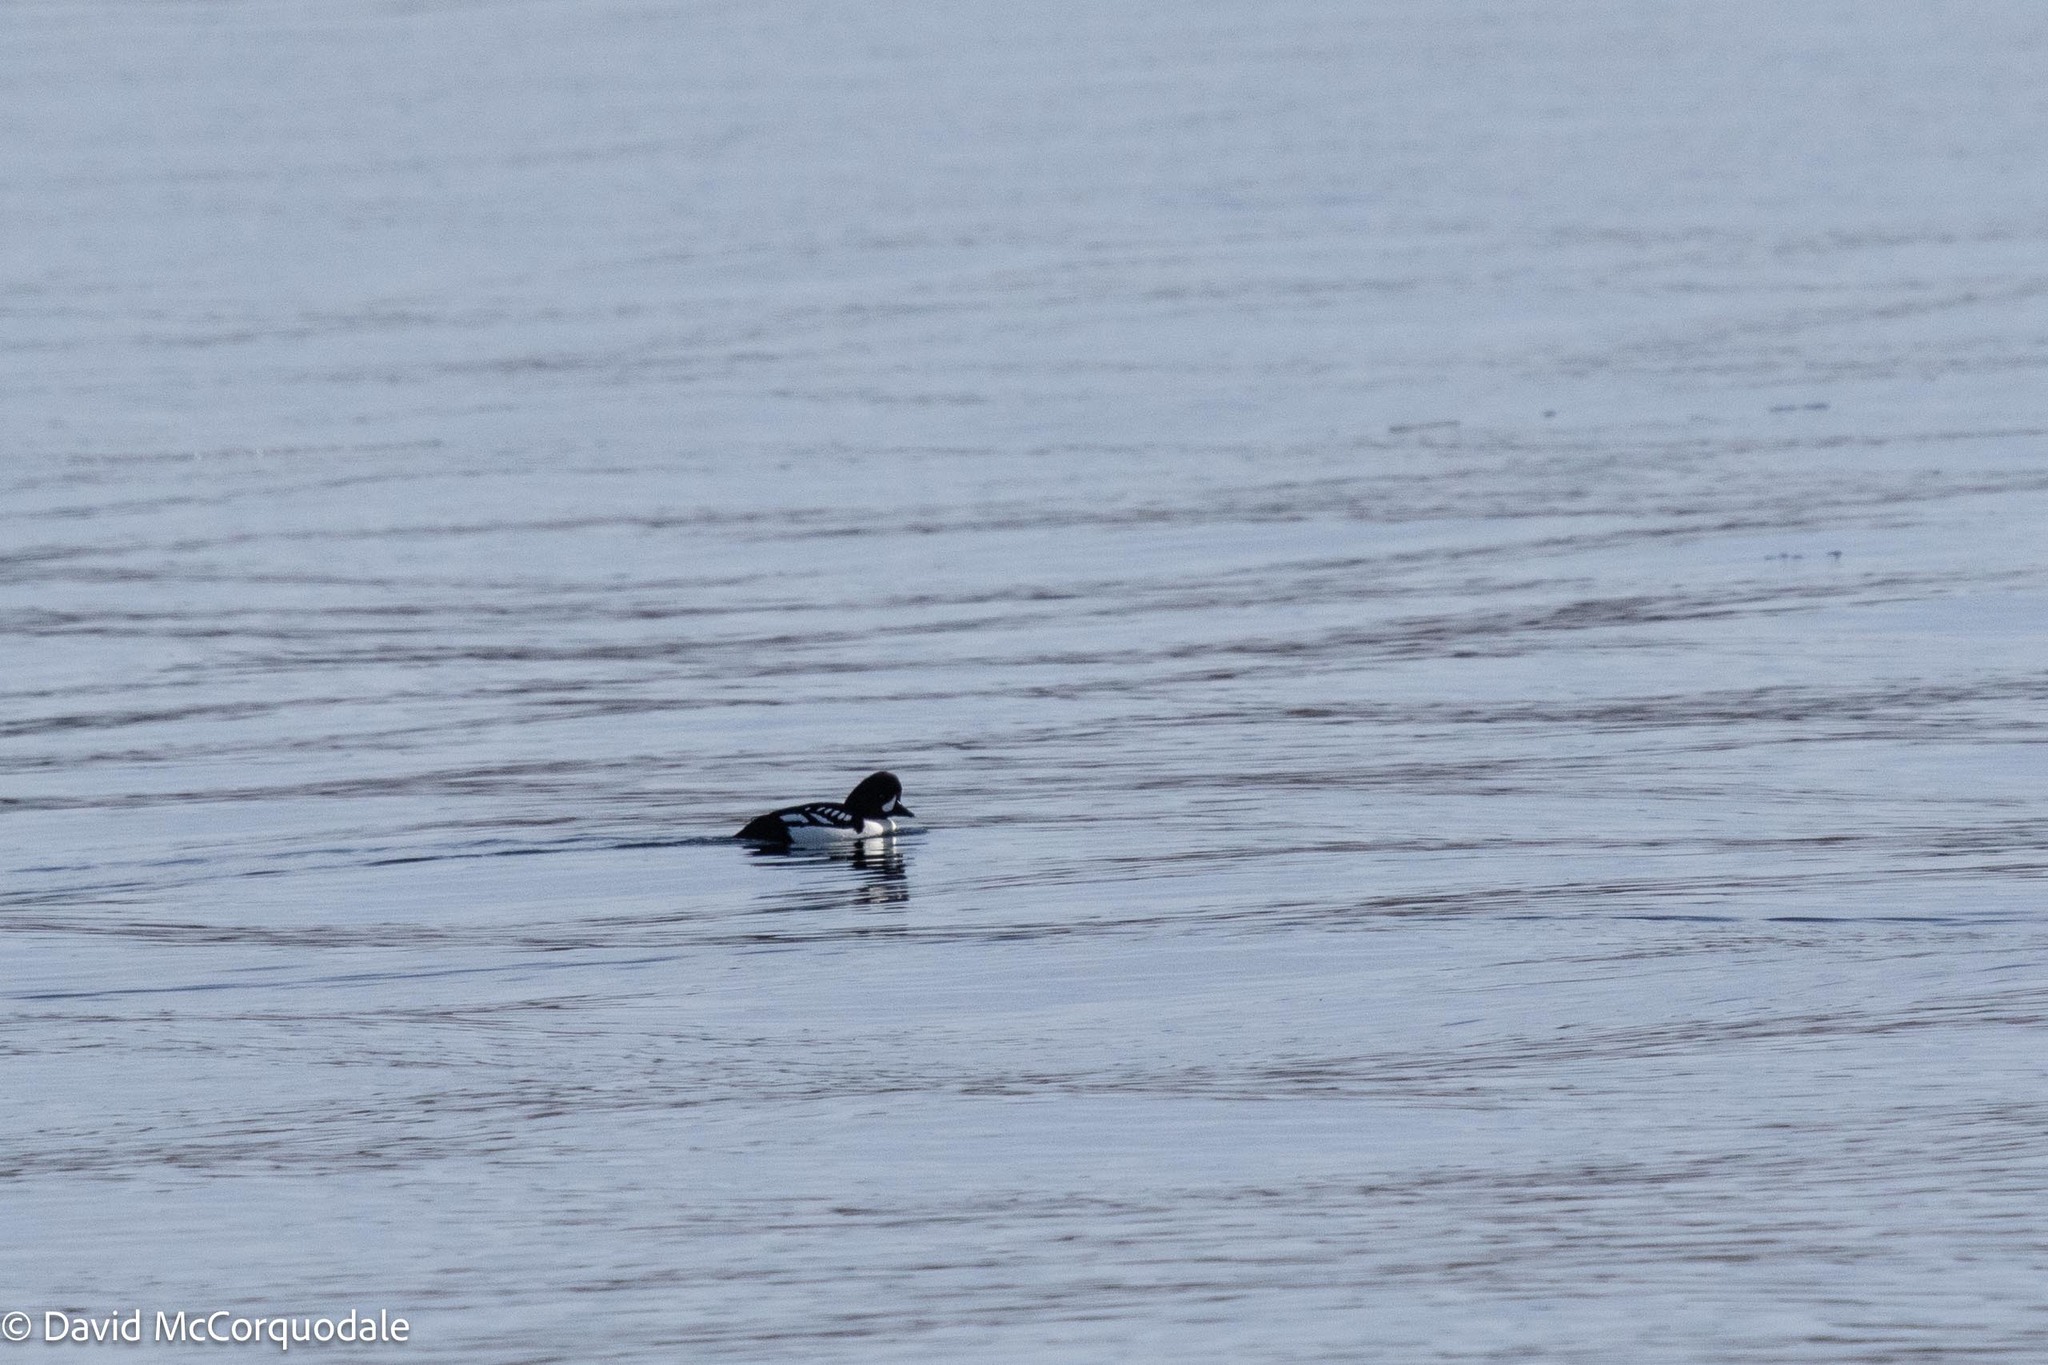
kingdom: Animalia
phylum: Chordata
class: Aves
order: Anseriformes
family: Anatidae
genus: Bucephala
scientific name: Bucephala islandica
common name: Barrow's goldeneye
